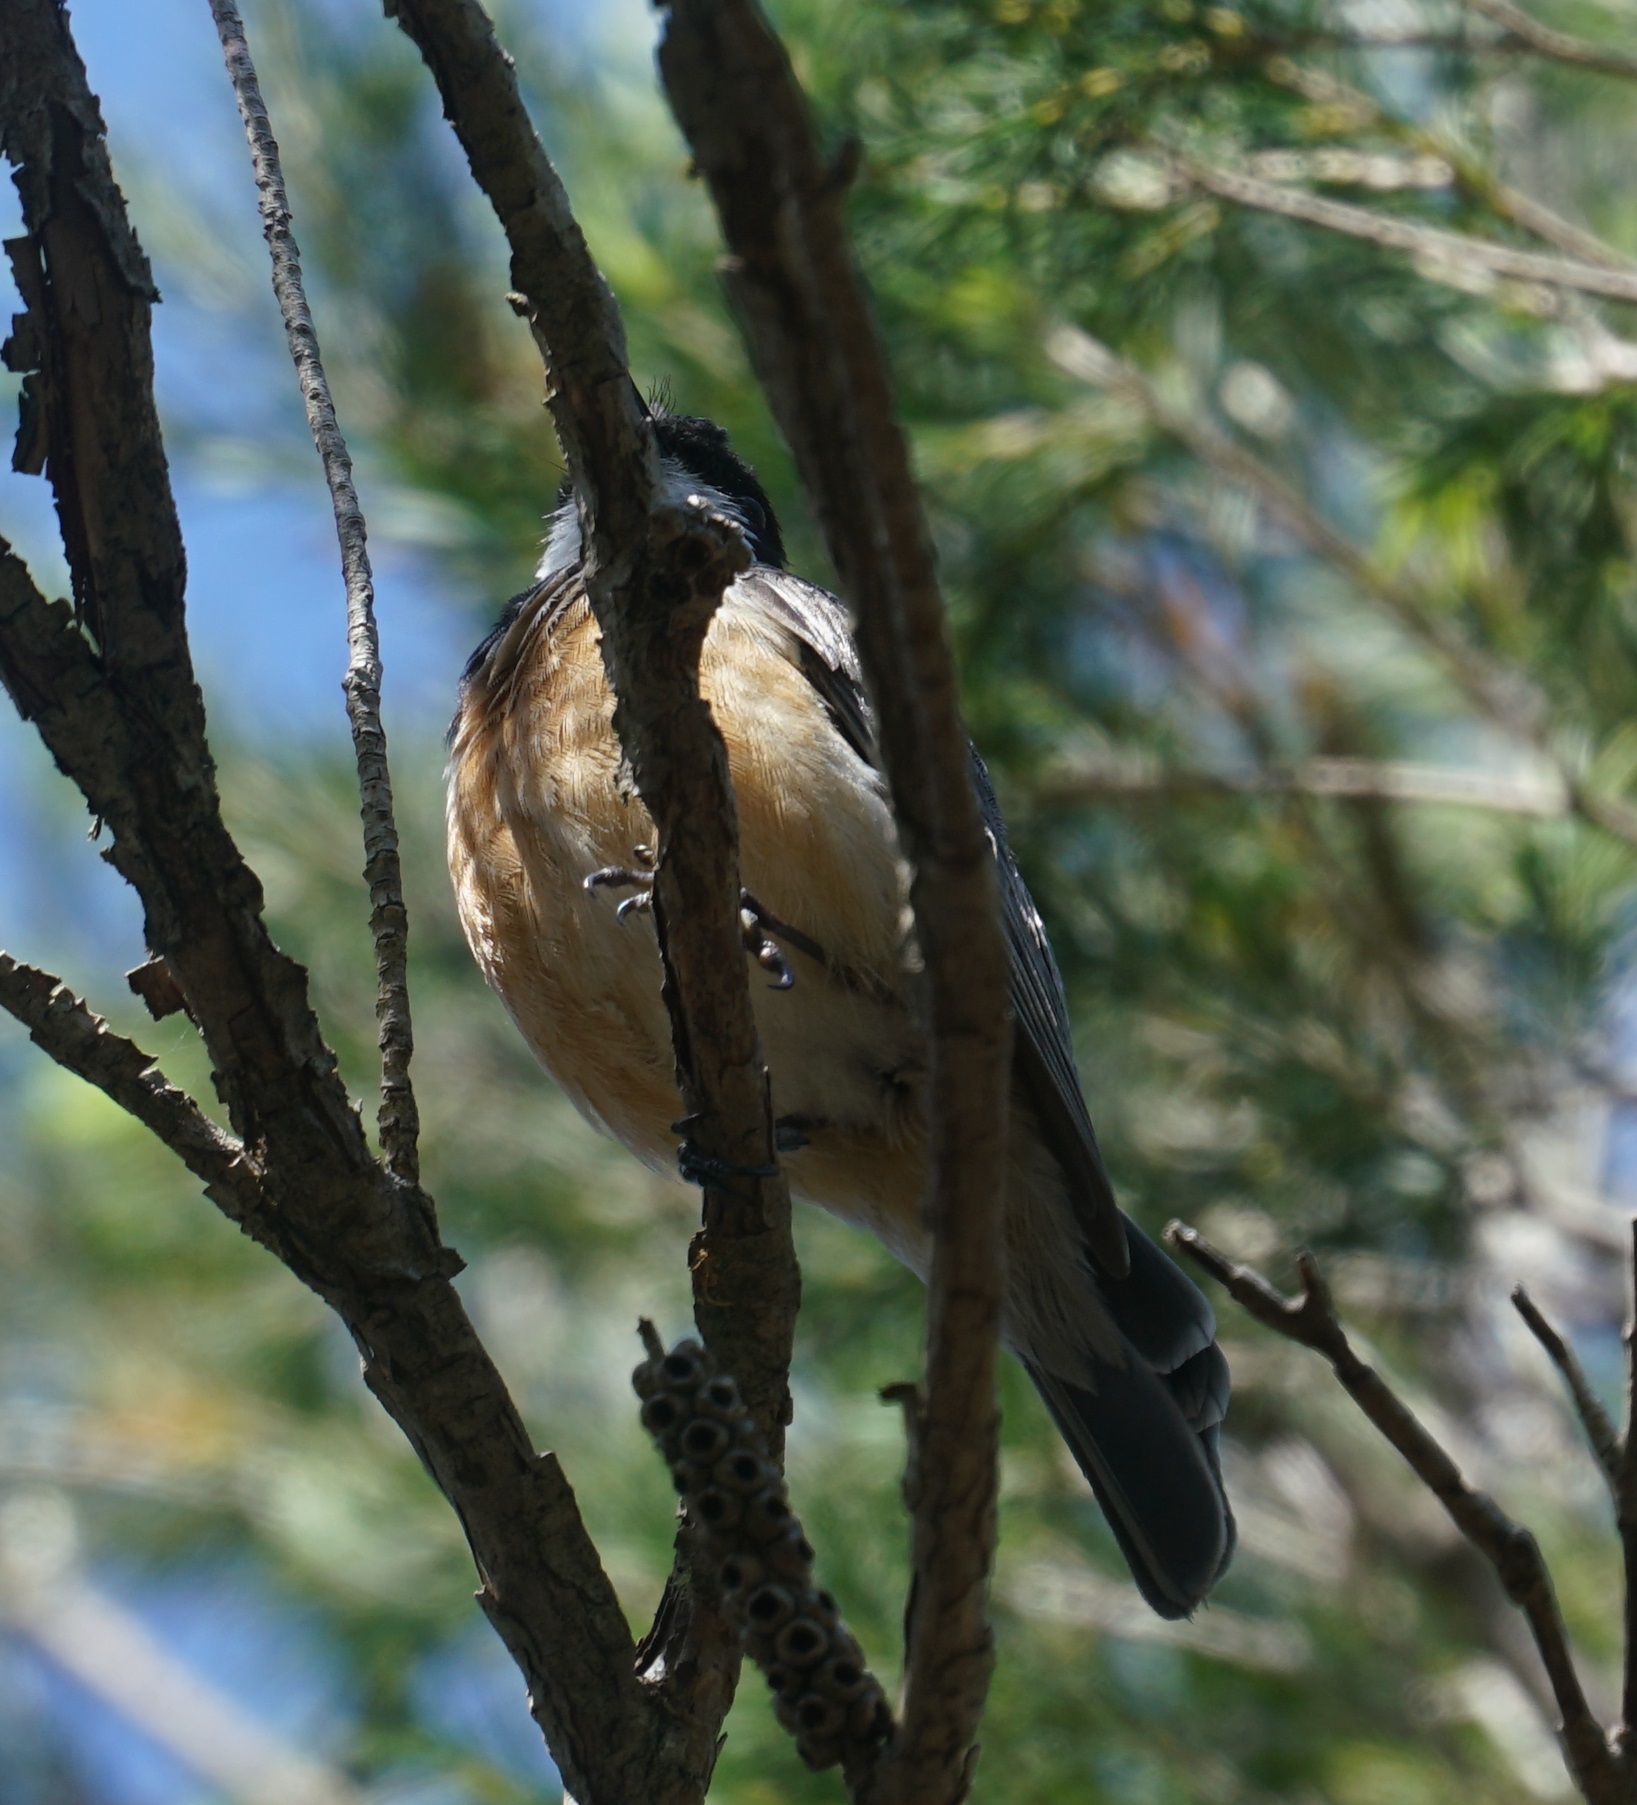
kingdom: Animalia
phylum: Chordata
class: Aves
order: Passeriformes
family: Pachycephalidae
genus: Pachycephala
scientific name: Pachycephala rufiventris
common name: Rufous whistler
